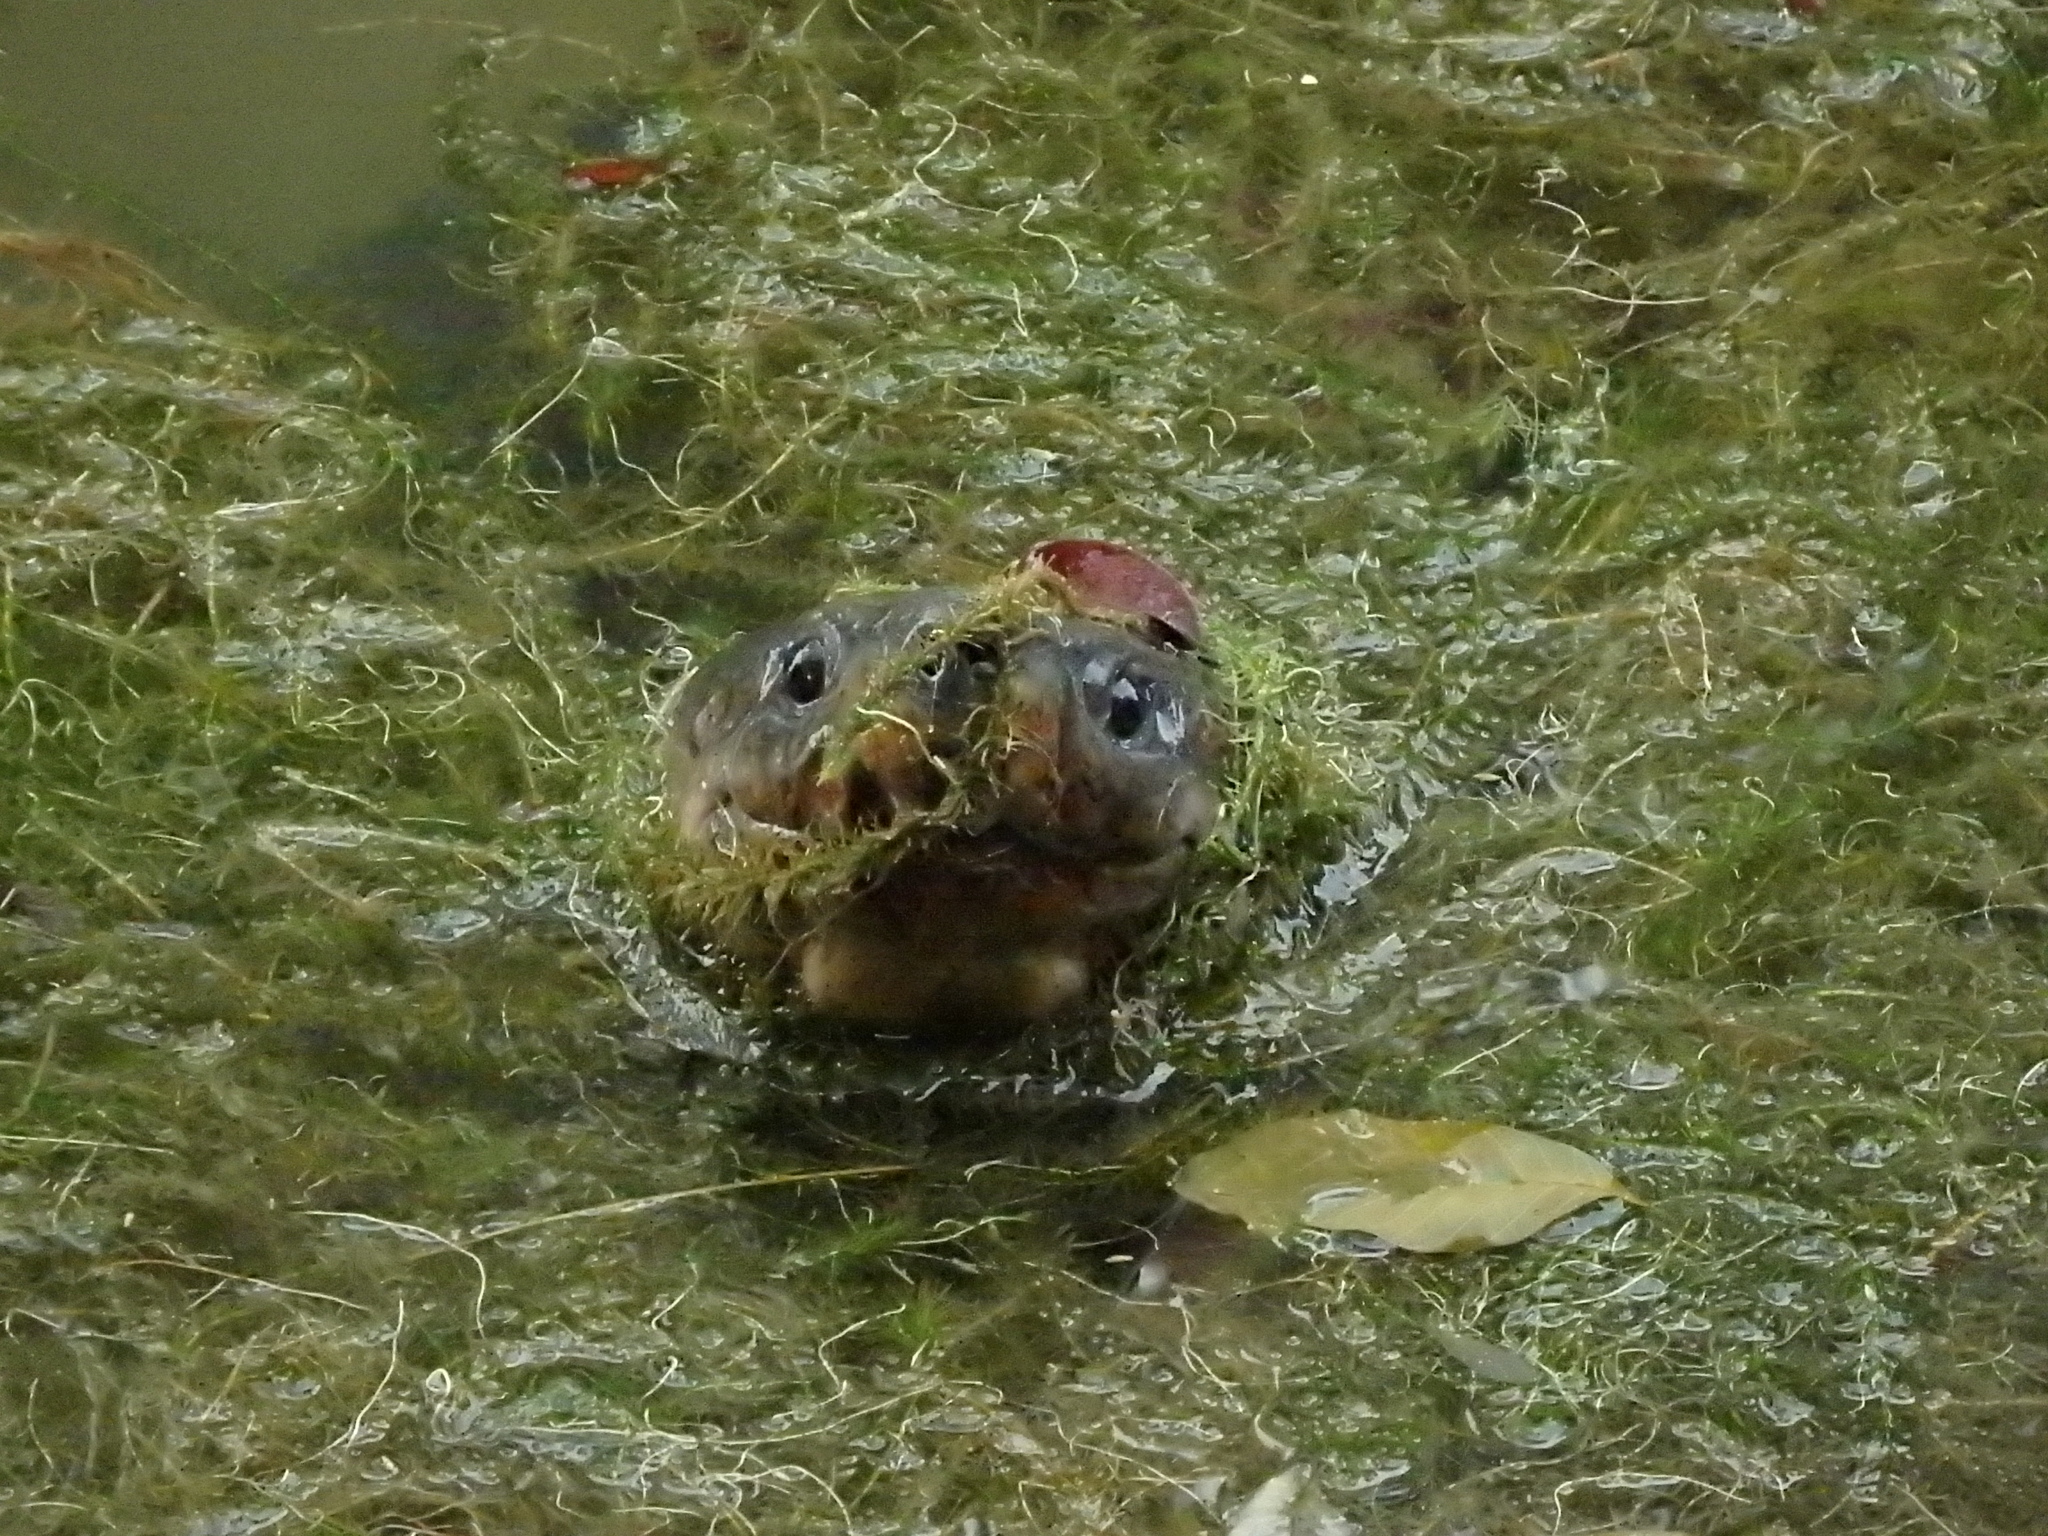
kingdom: Animalia
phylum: Chordata
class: Testudines
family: Geoemydidae
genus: Orlitia
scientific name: Orlitia borneensis
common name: Century turtle
